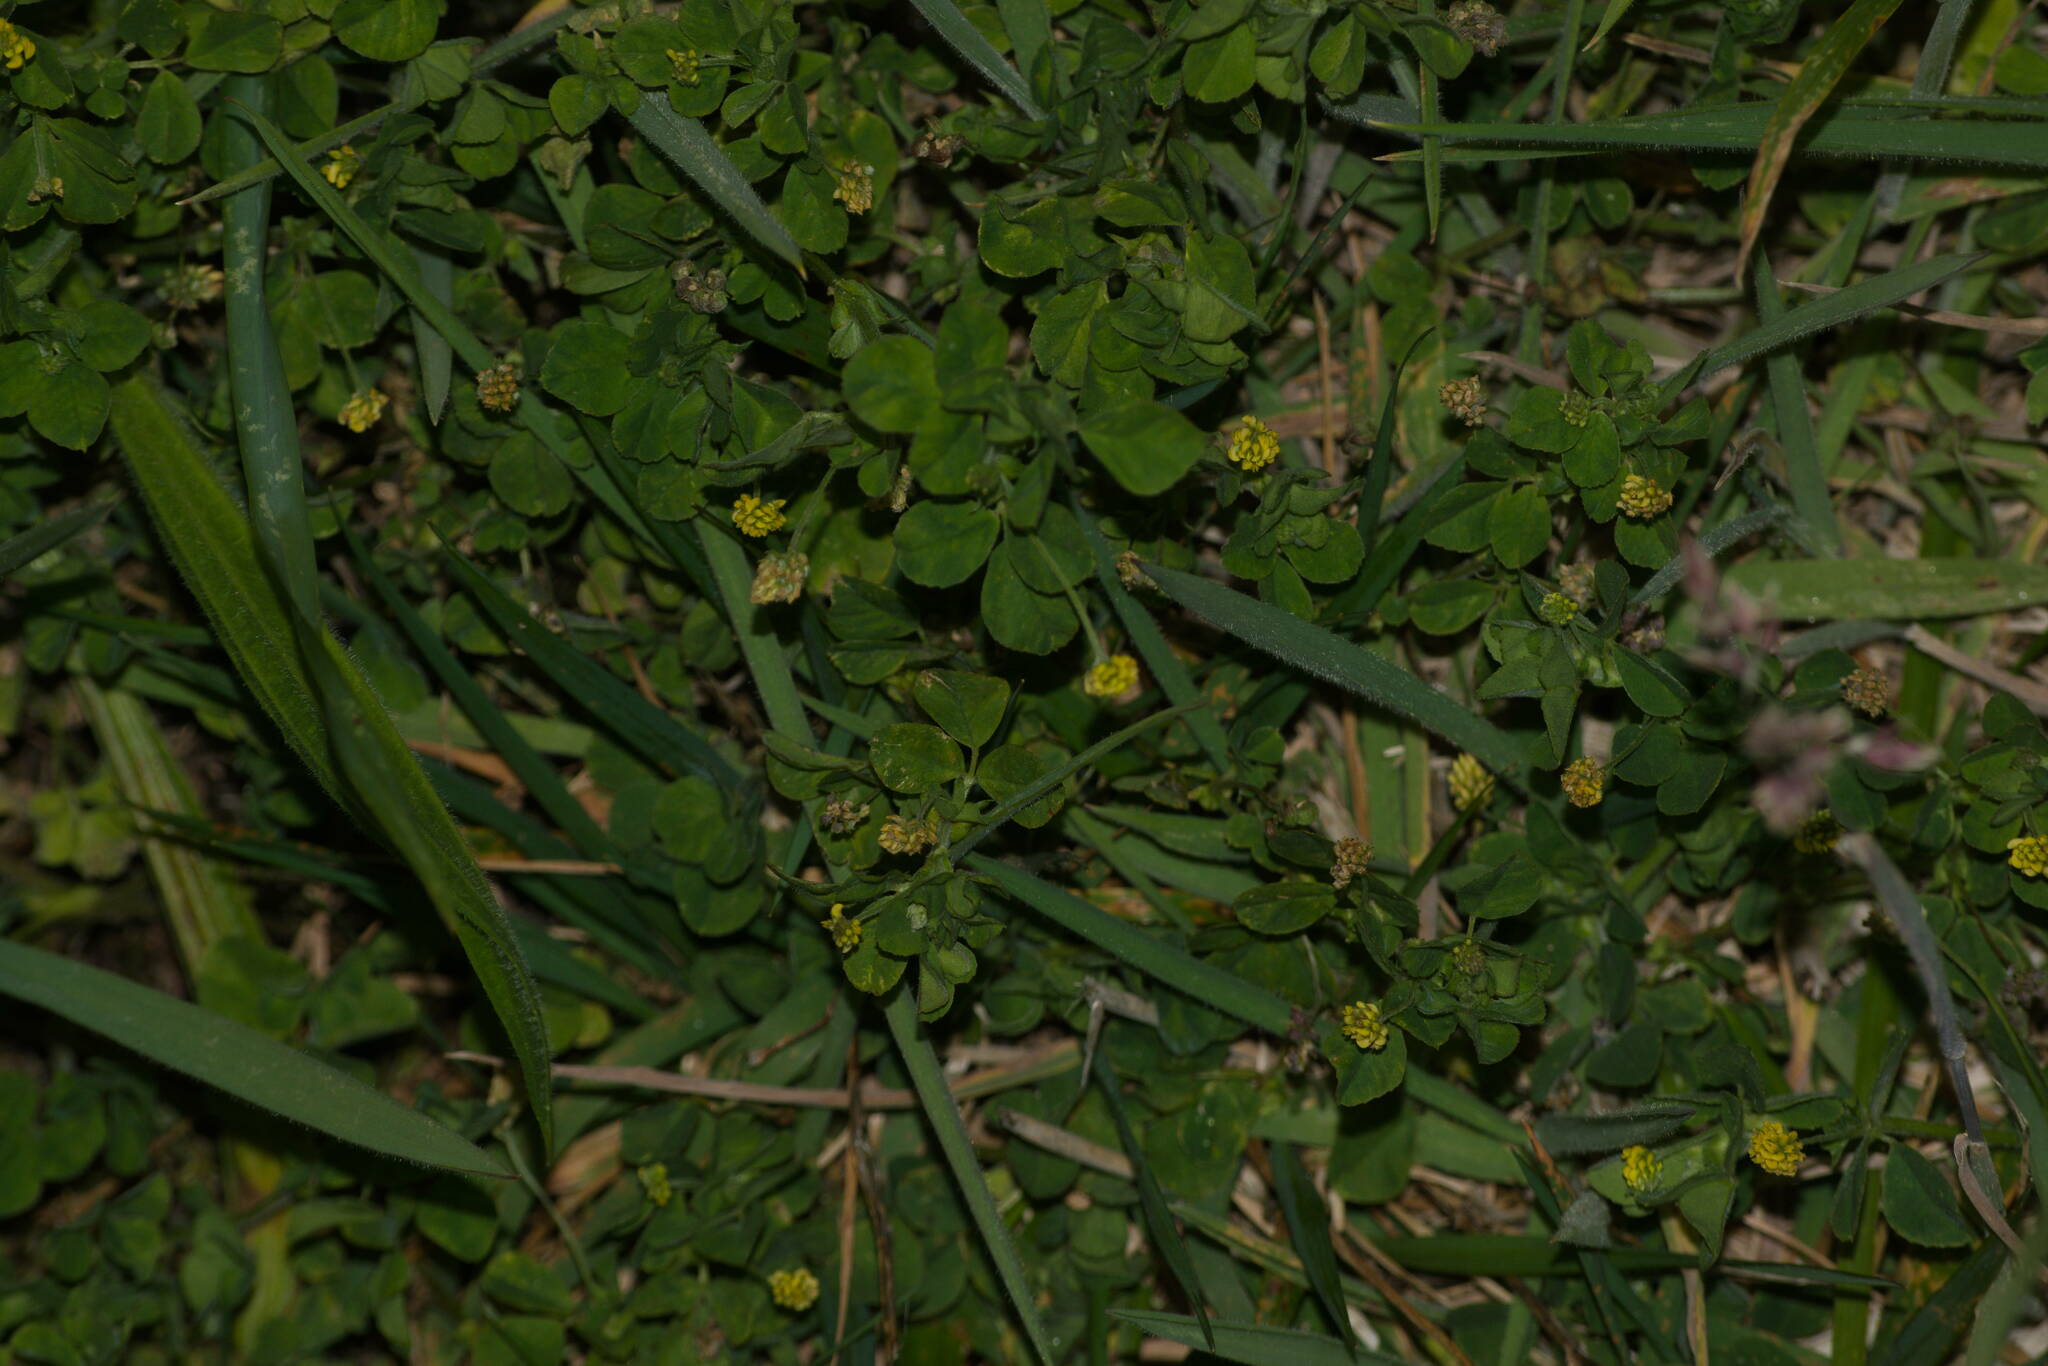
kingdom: Plantae
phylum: Tracheophyta
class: Magnoliopsida
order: Fabales
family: Fabaceae
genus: Medicago
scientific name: Medicago lupulina
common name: Black medick
